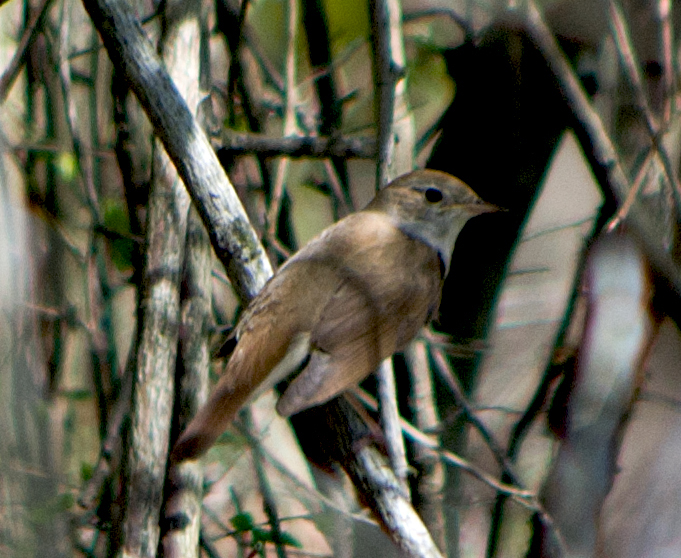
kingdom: Animalia
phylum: Chordata
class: Aves
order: Passeriformes
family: Muscicapidae
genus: Luscinia
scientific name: Luscinia megarhynchos
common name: Common nightingale
